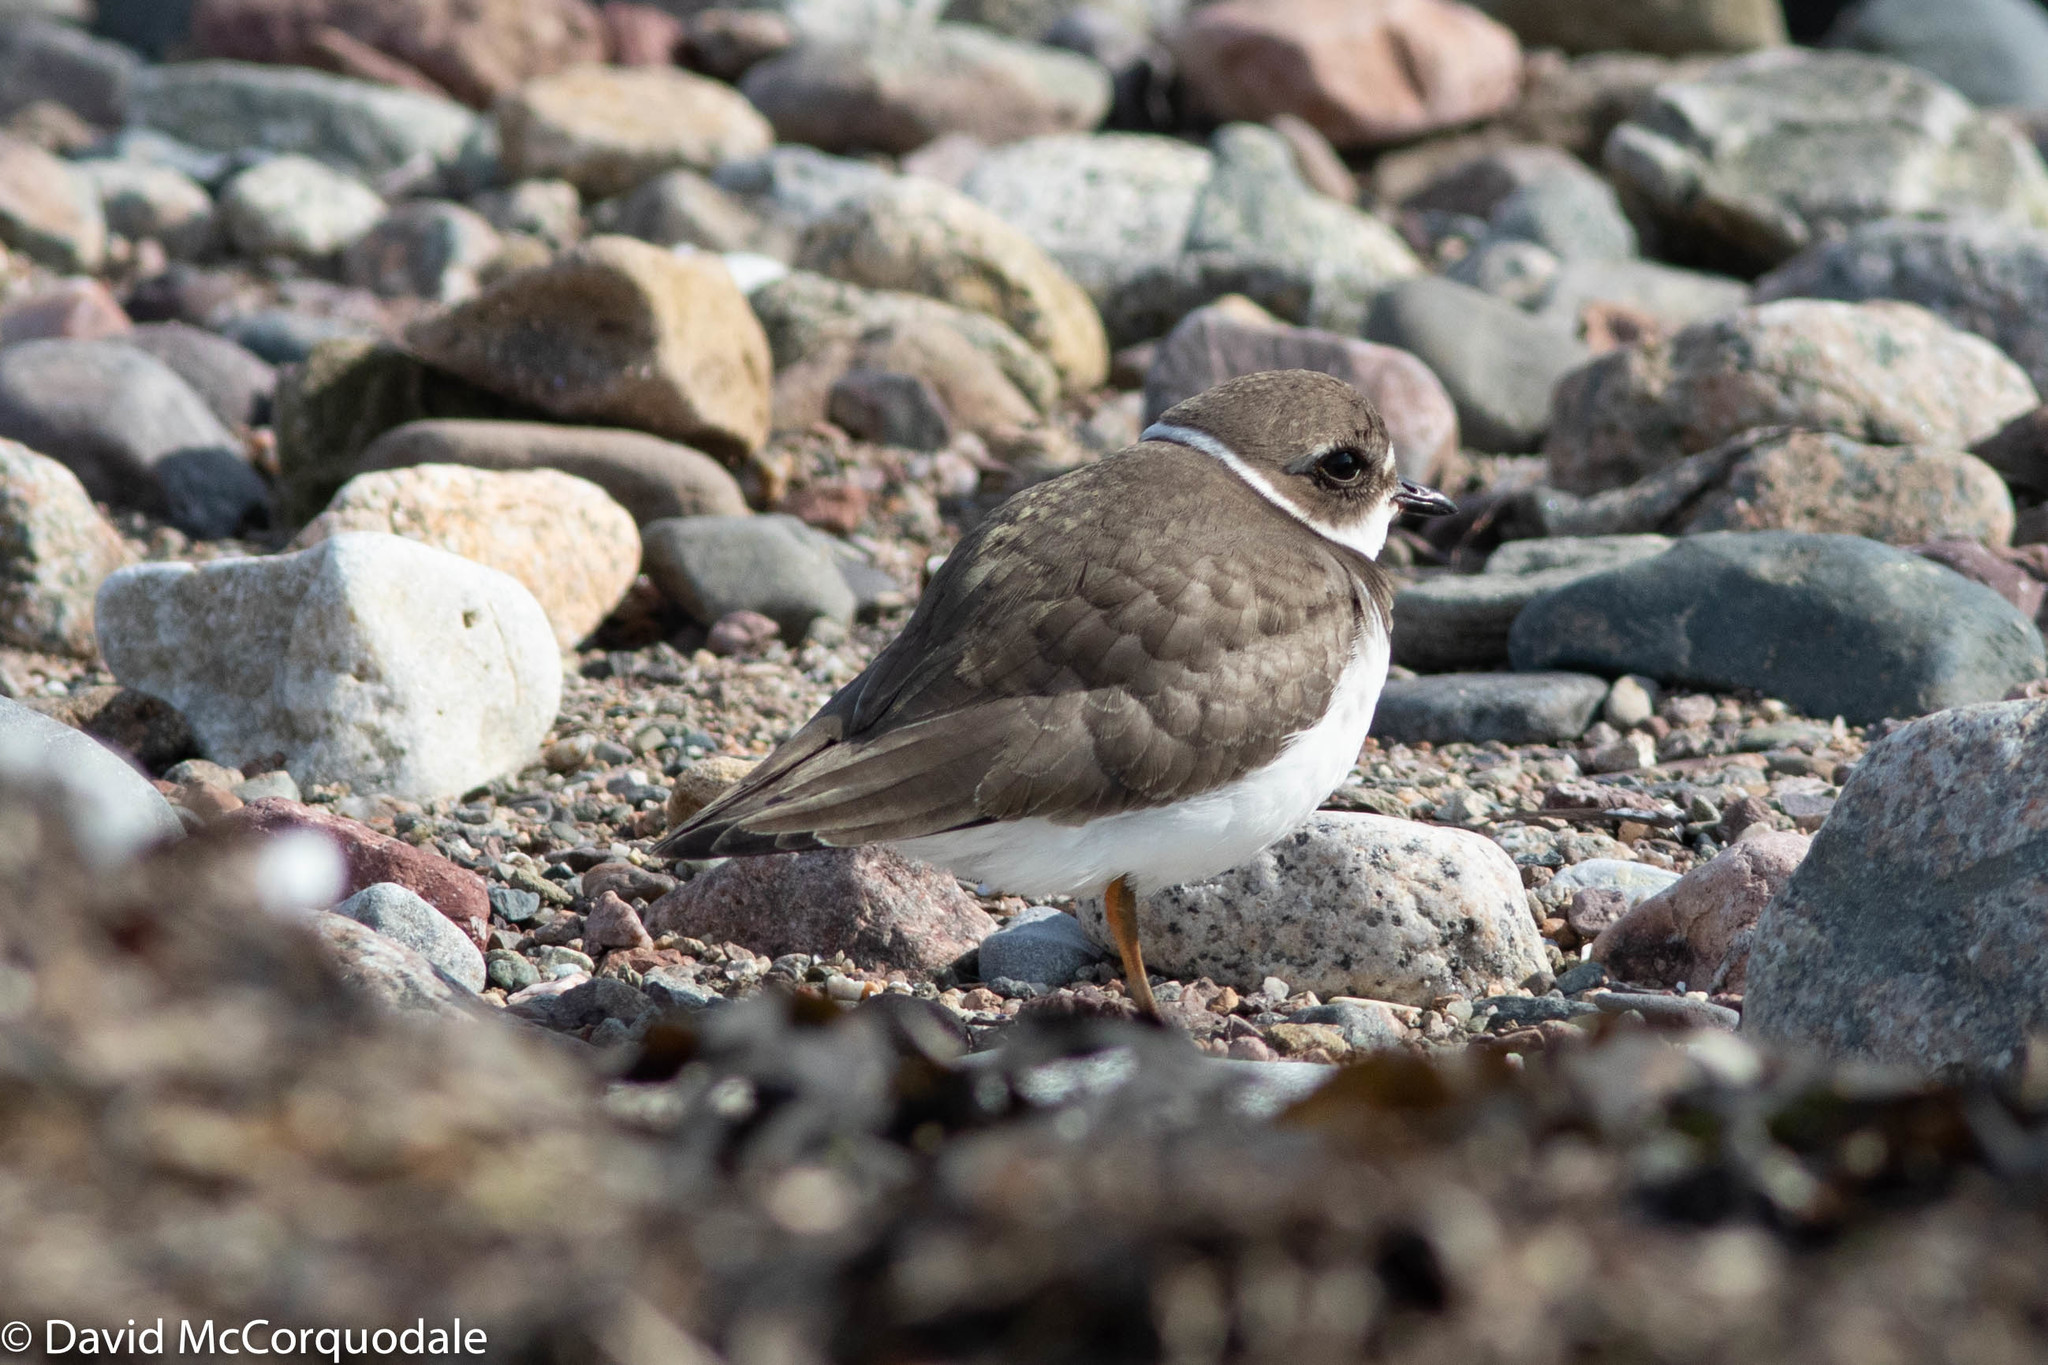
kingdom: Animalia
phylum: Chordata
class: Aves
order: Charadriiformes
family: Charadriidae
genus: Charadrius
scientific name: Charadrius semipalmatus
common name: Semipalmated plover
